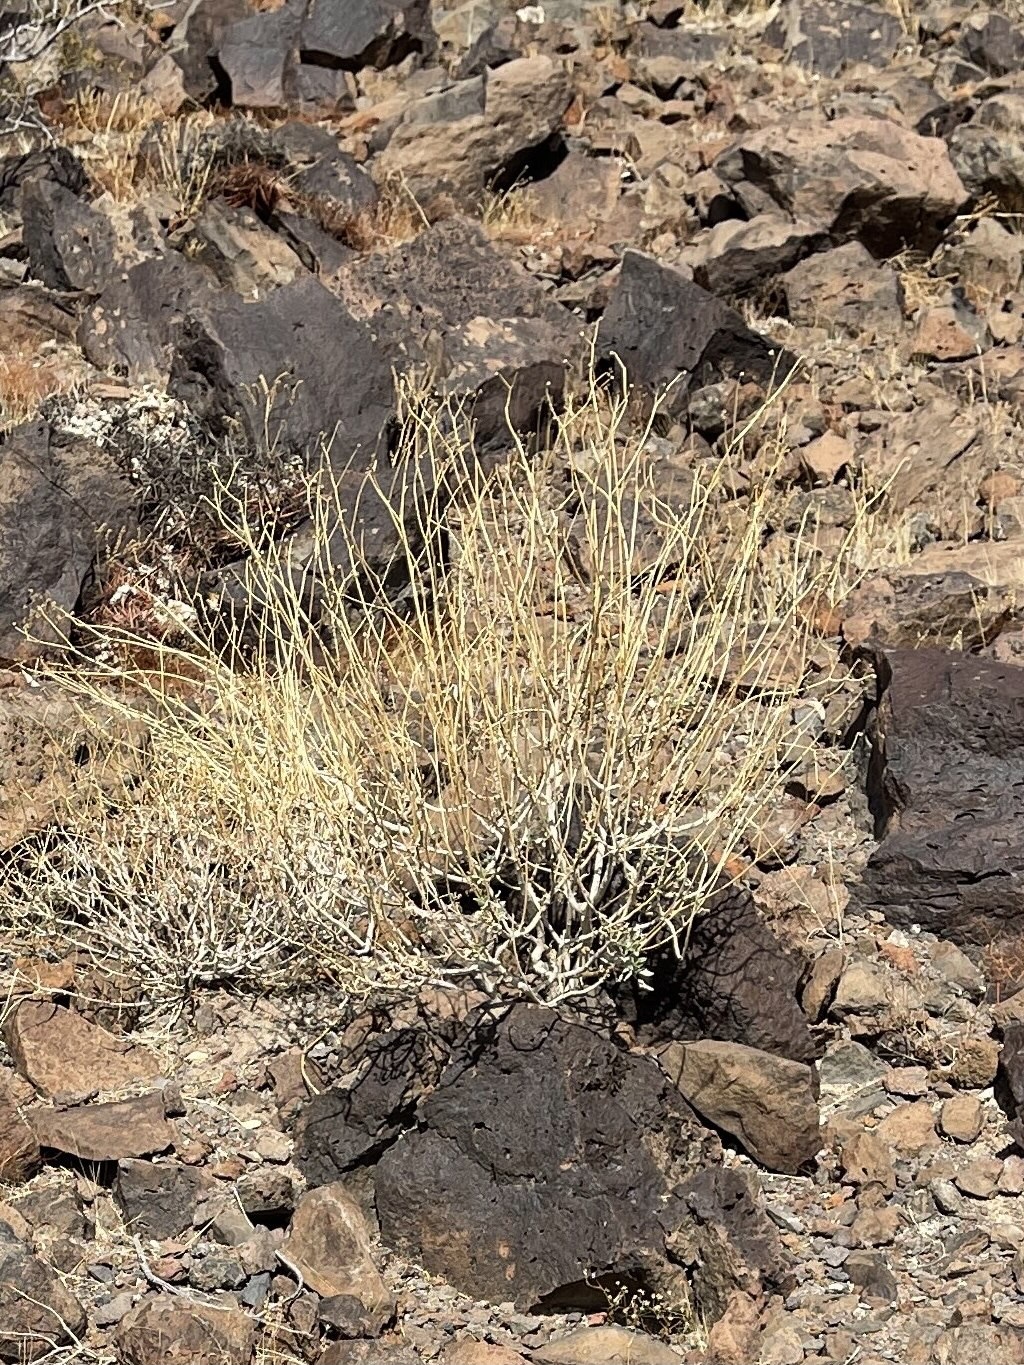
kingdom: Plantae
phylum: Tracheophyta
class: Magnoliopsida
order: Asterales
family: Asteraceae
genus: Encelia
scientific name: Encelia farinosa
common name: Brittlebush
